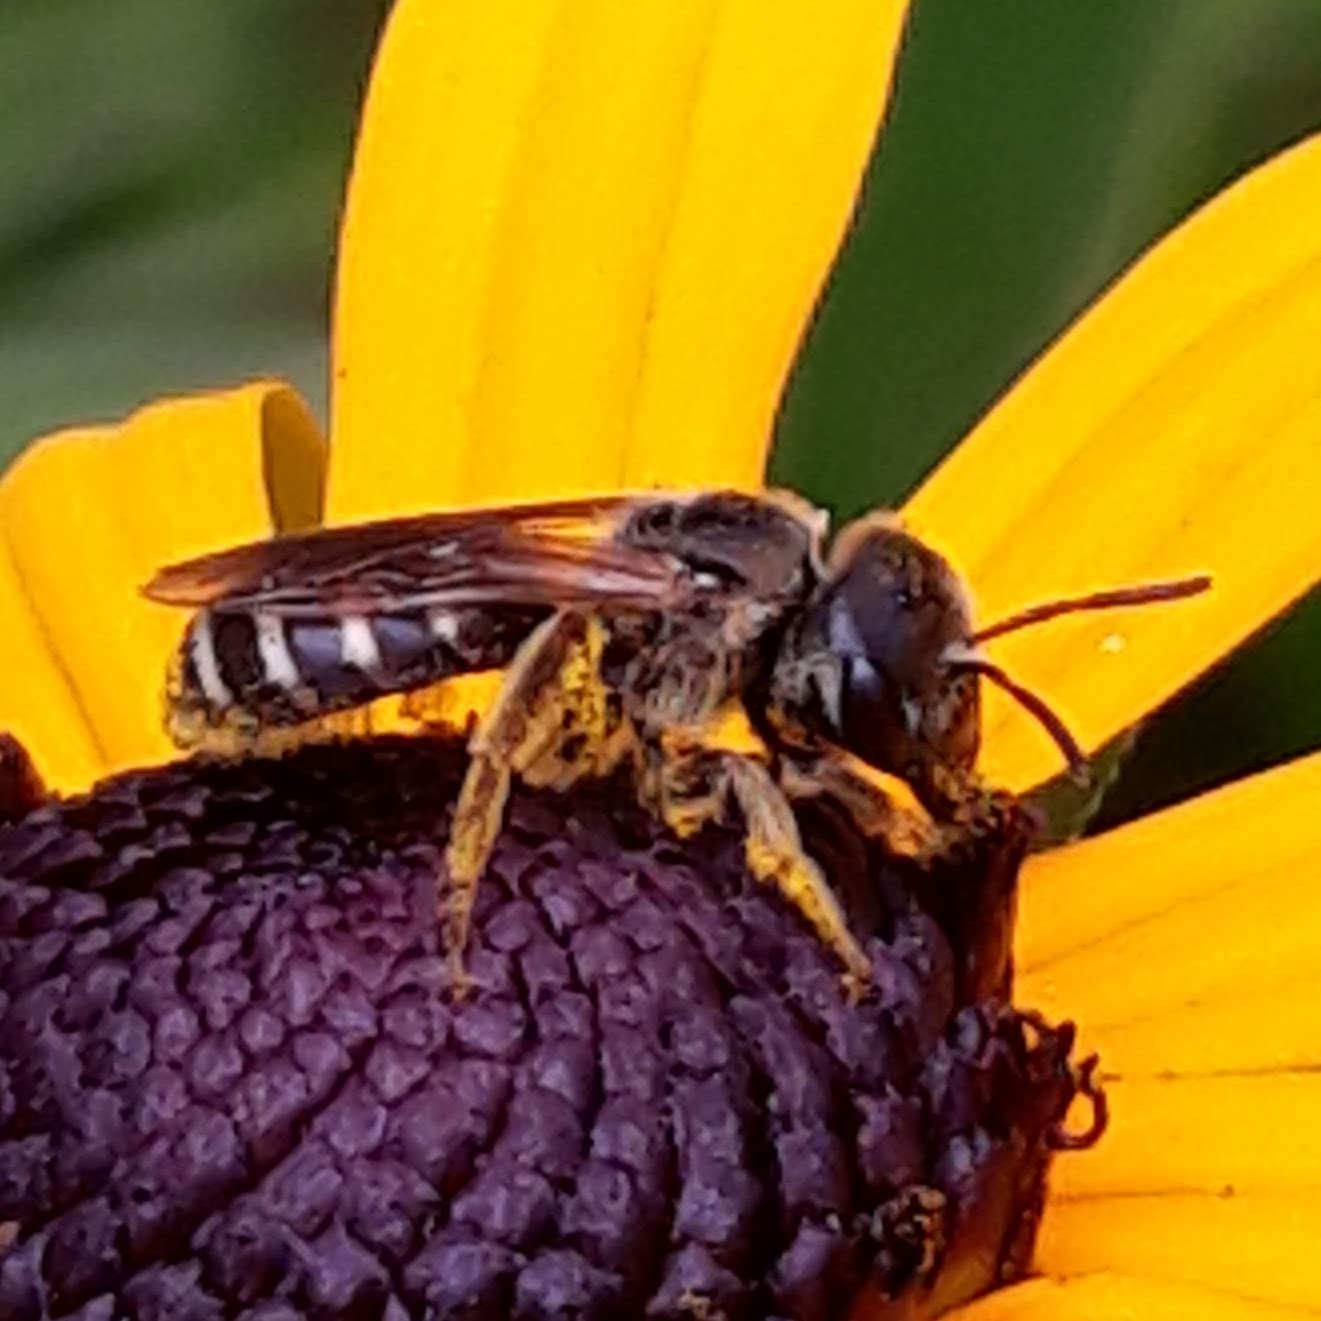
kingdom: Animalia
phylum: Arthropoda
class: Insecta
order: Hymenoptera
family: Halictidae
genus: Halictus
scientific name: Halictus ligatus
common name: Ligated furrow bee
